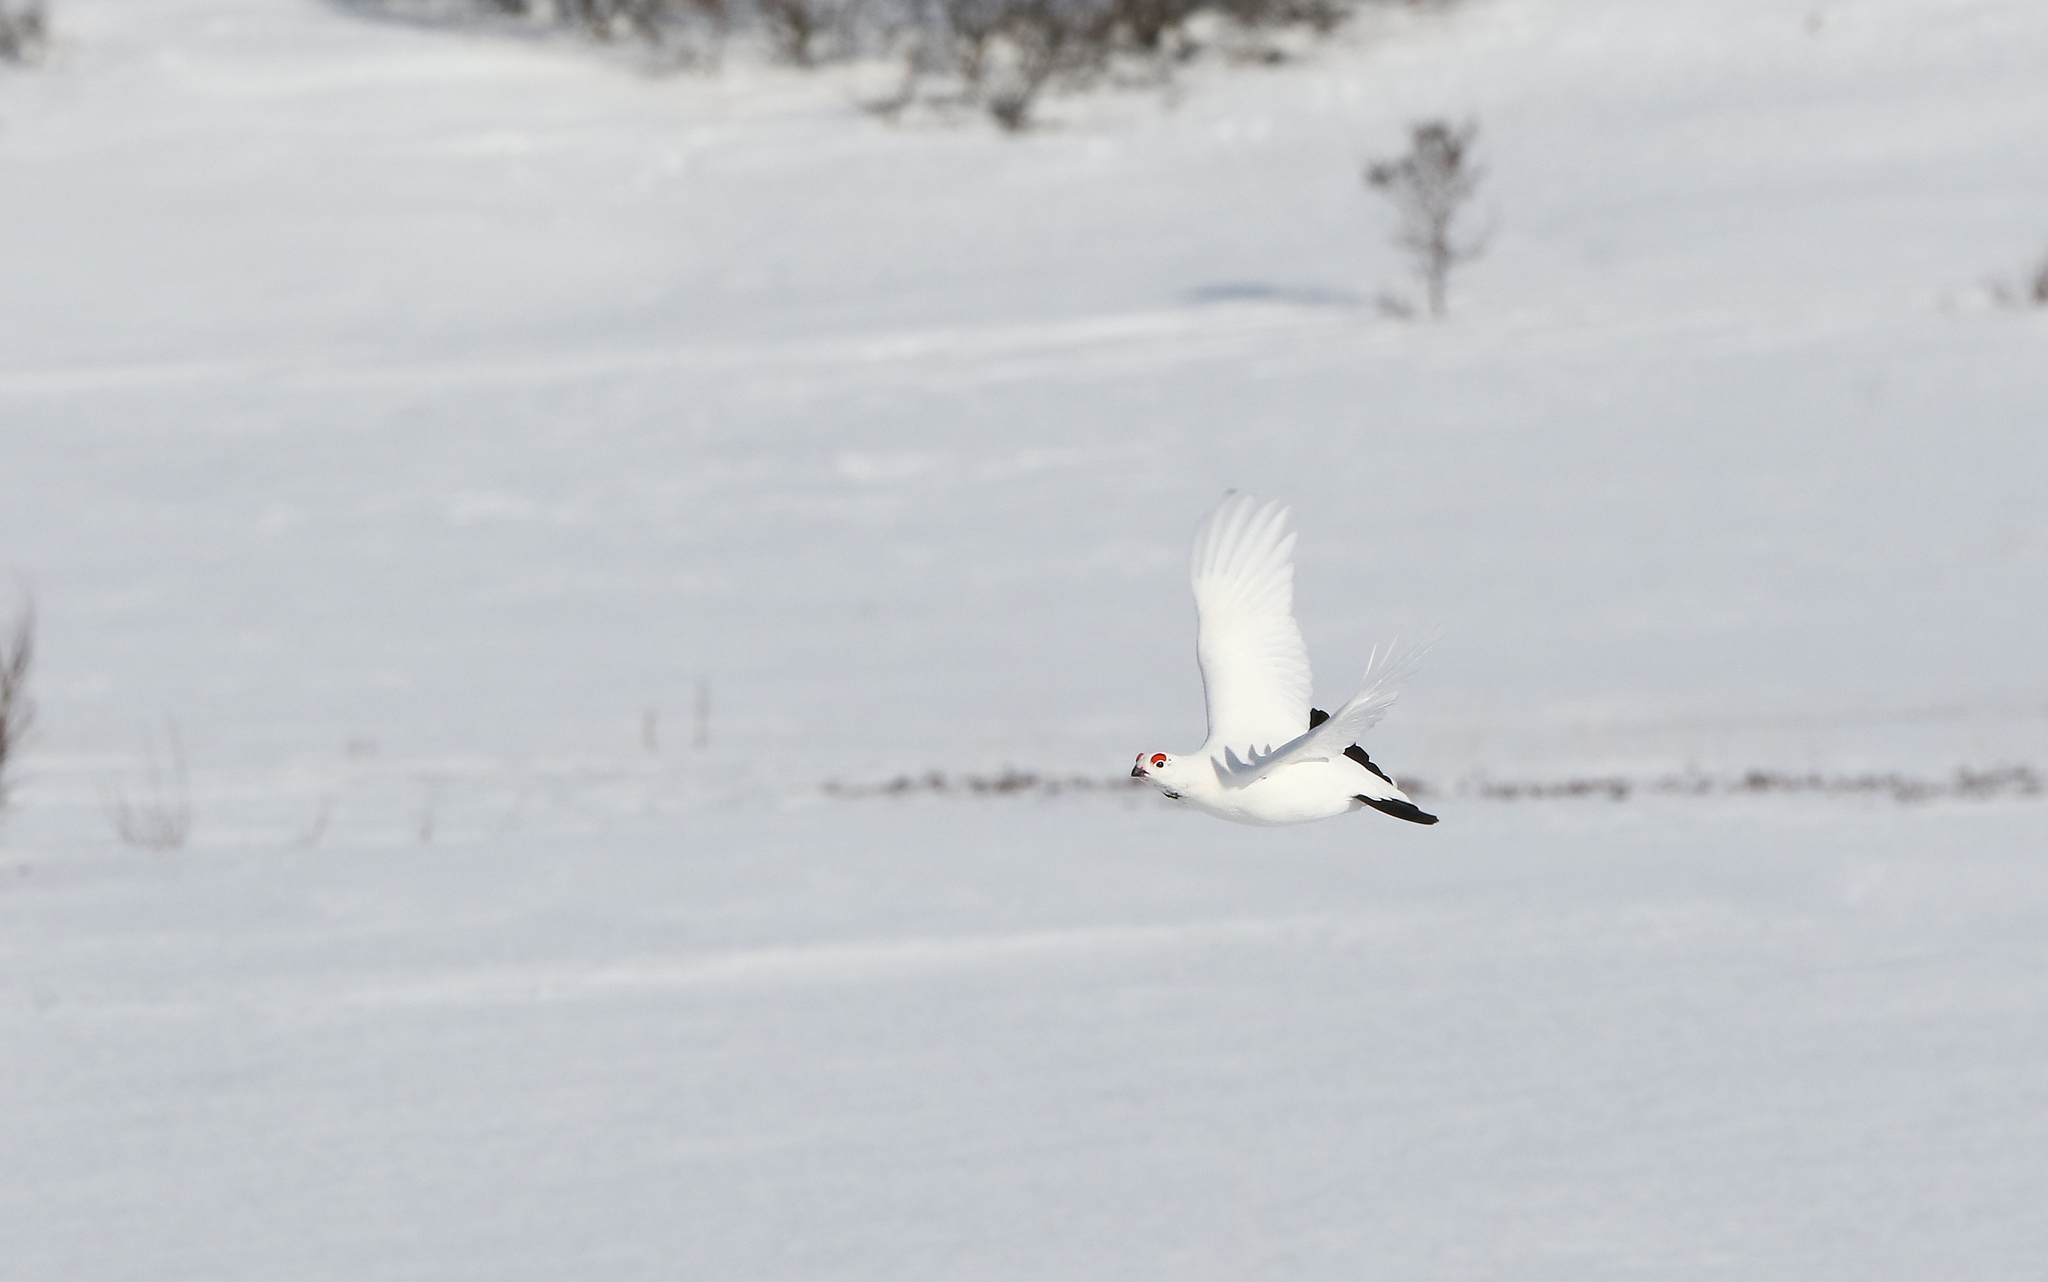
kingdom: Animalia
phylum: Chordata
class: Aves
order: Galliformes
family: Phasianidae
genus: Lagopus
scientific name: Lagopus lagopus
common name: Willow ptarmigan
